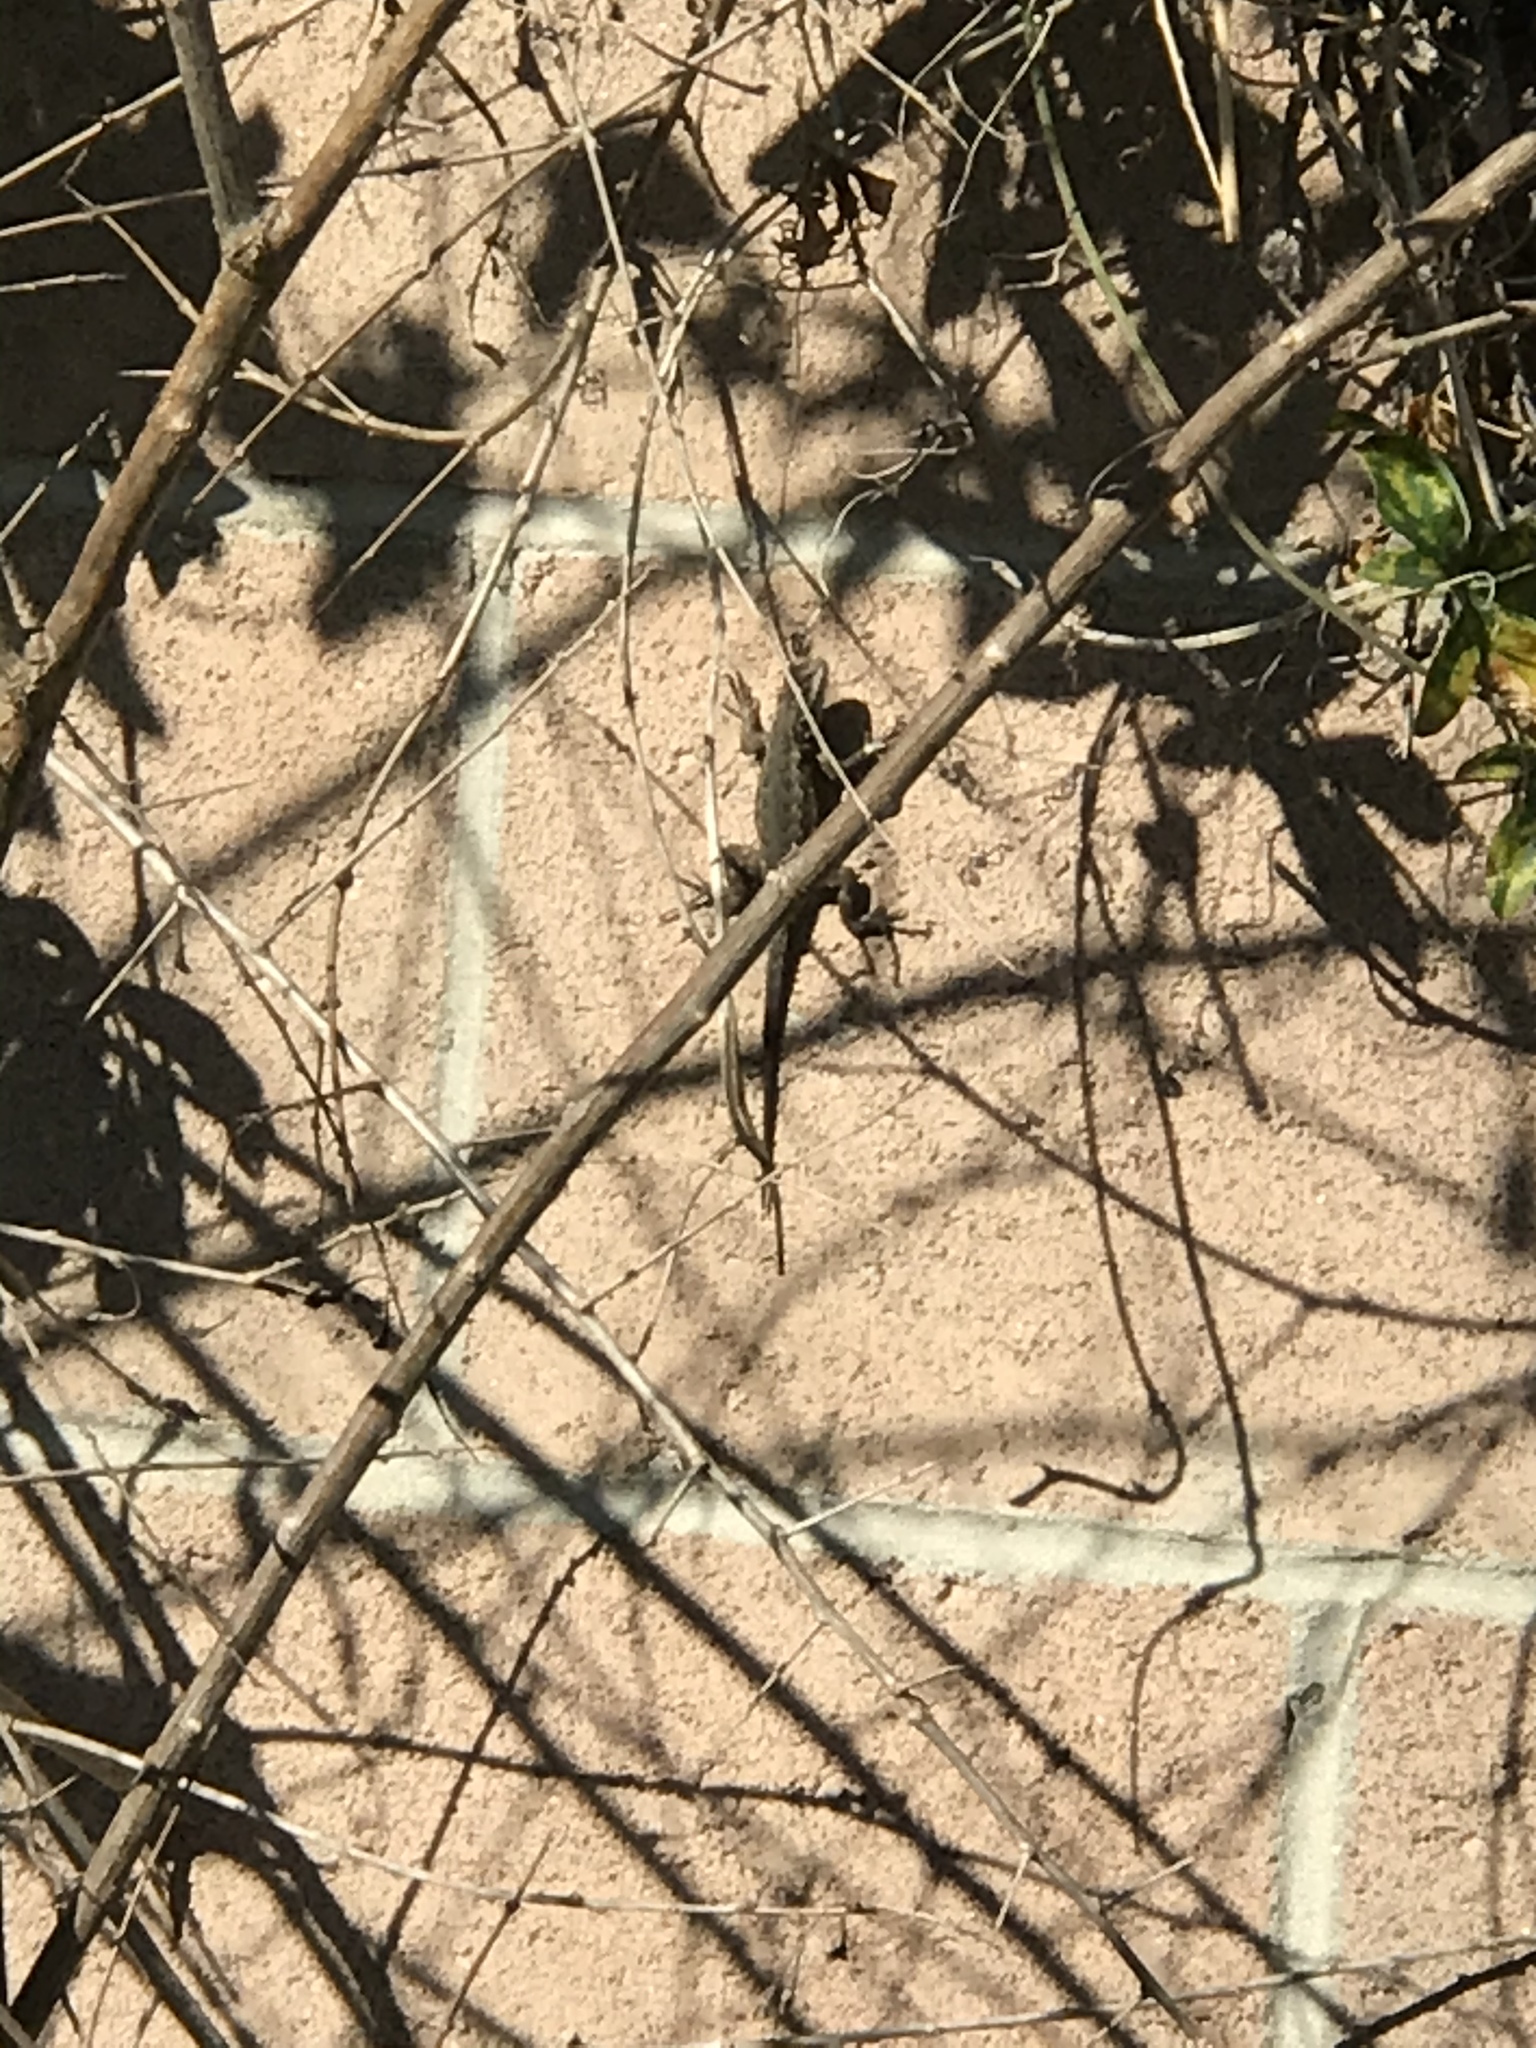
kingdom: Animalia
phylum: Chordata
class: Squamata
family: Phrynosomatidae
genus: Sceloporus
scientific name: Sceloporus occidentalis
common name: Western fence lizard
